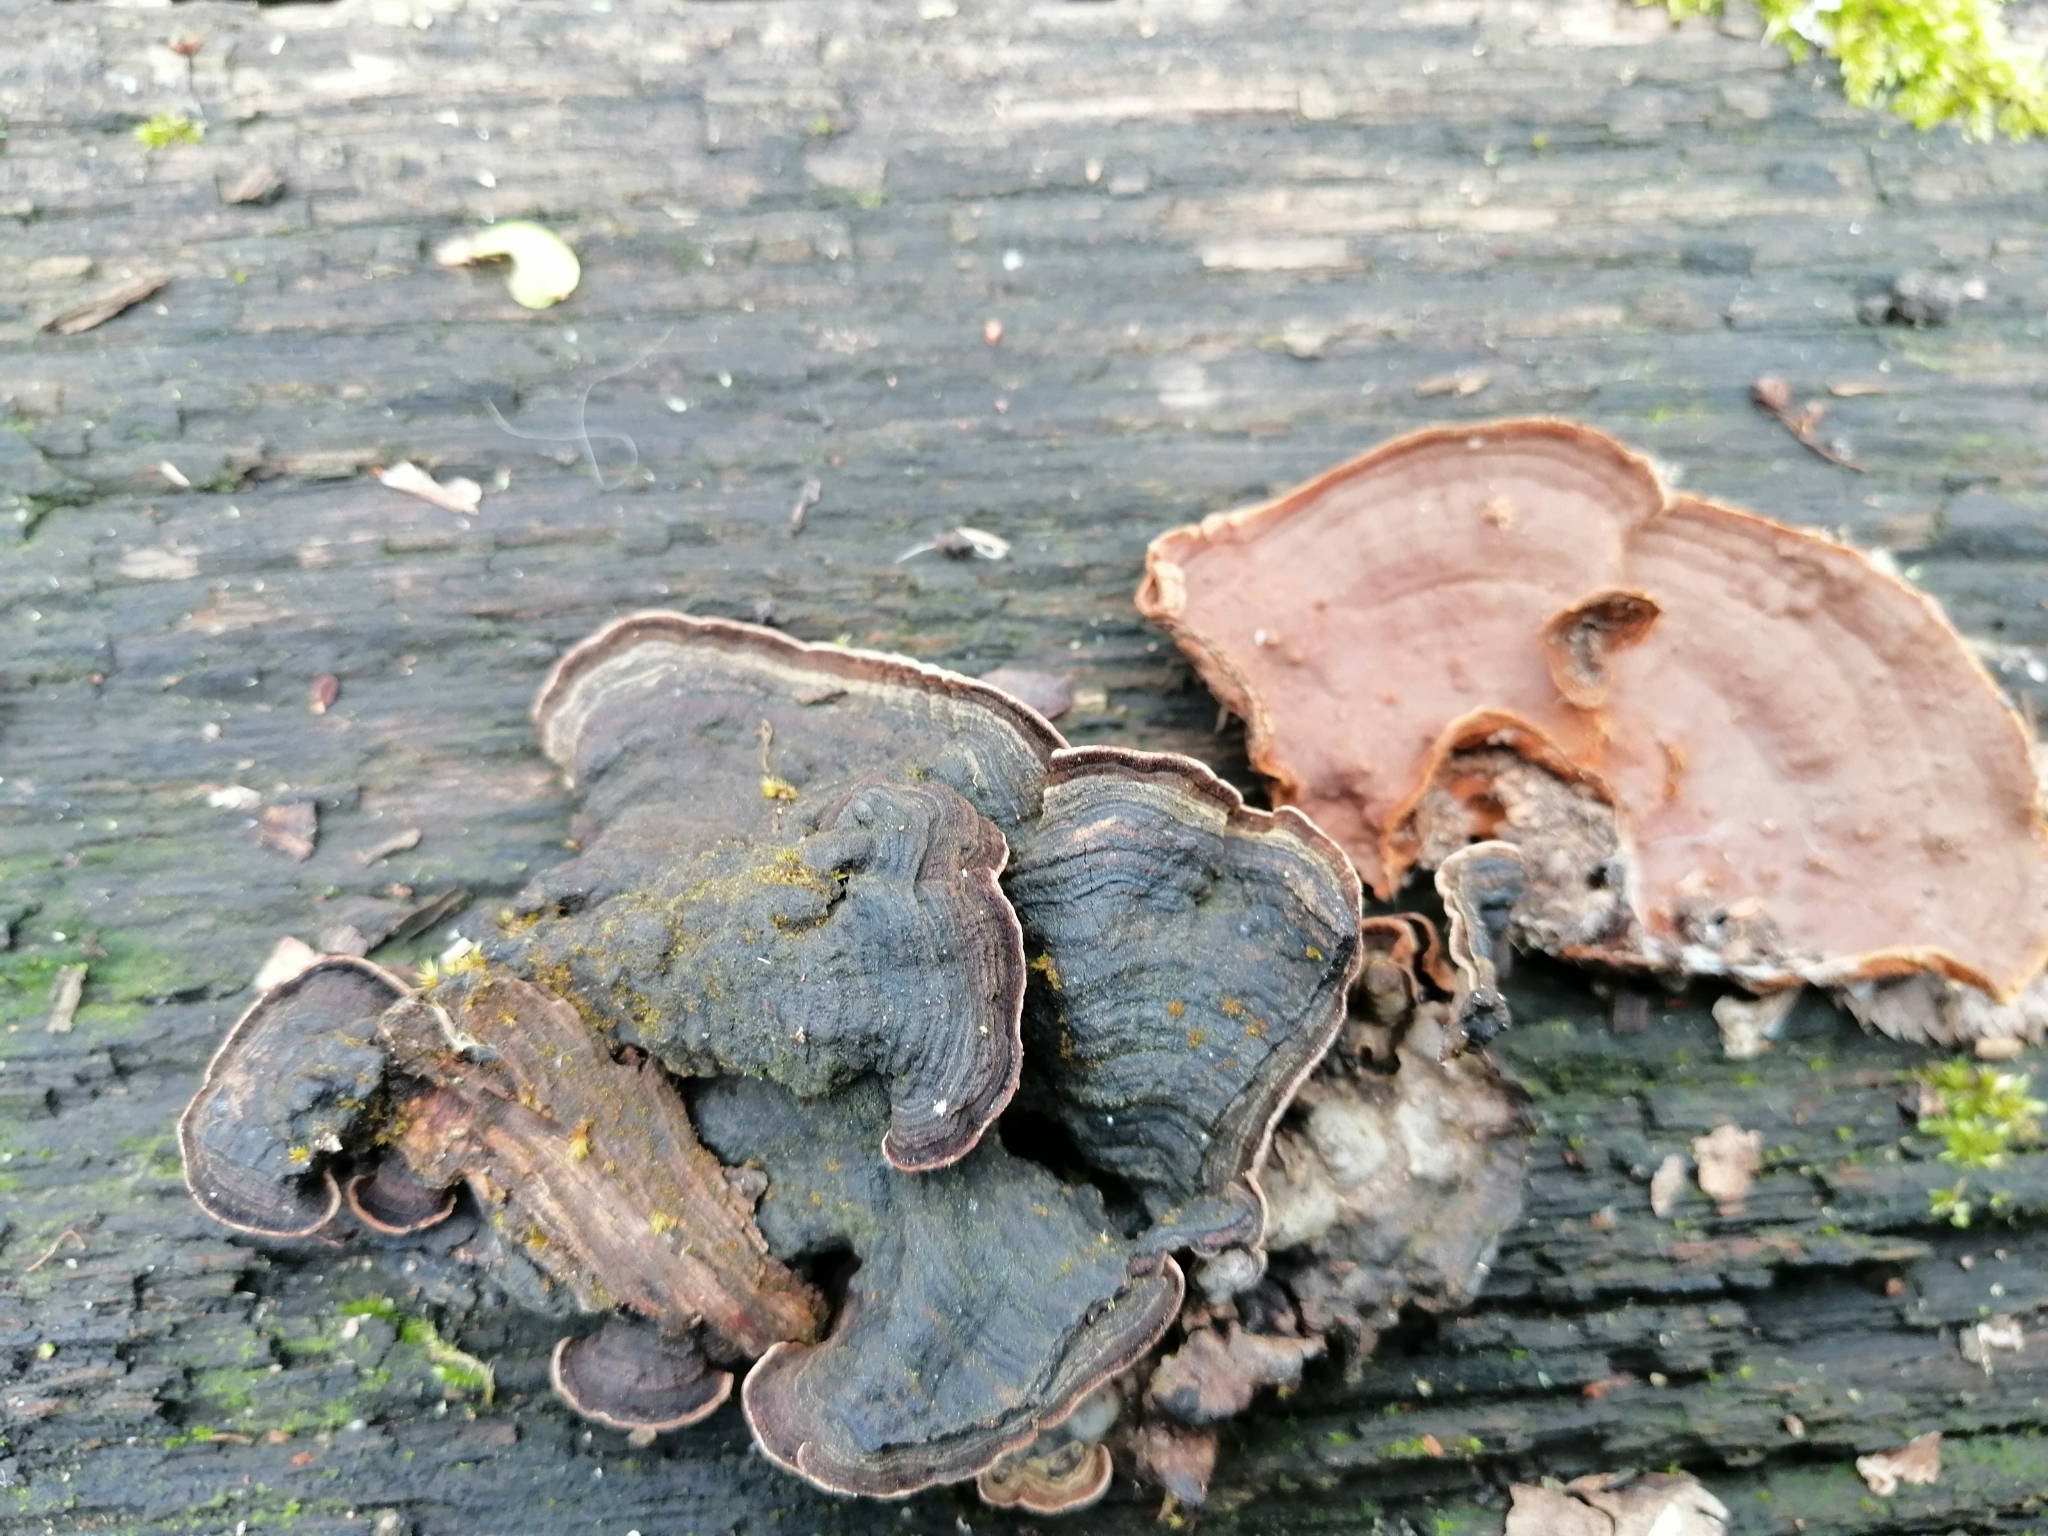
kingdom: Fungi
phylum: Basidiomycota
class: Agaricomycetes
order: Hymenochaetales
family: Hymenochaetaceae
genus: Hymenochaete
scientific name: Hymenochaete rubiginosa
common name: Oak curtain crust
